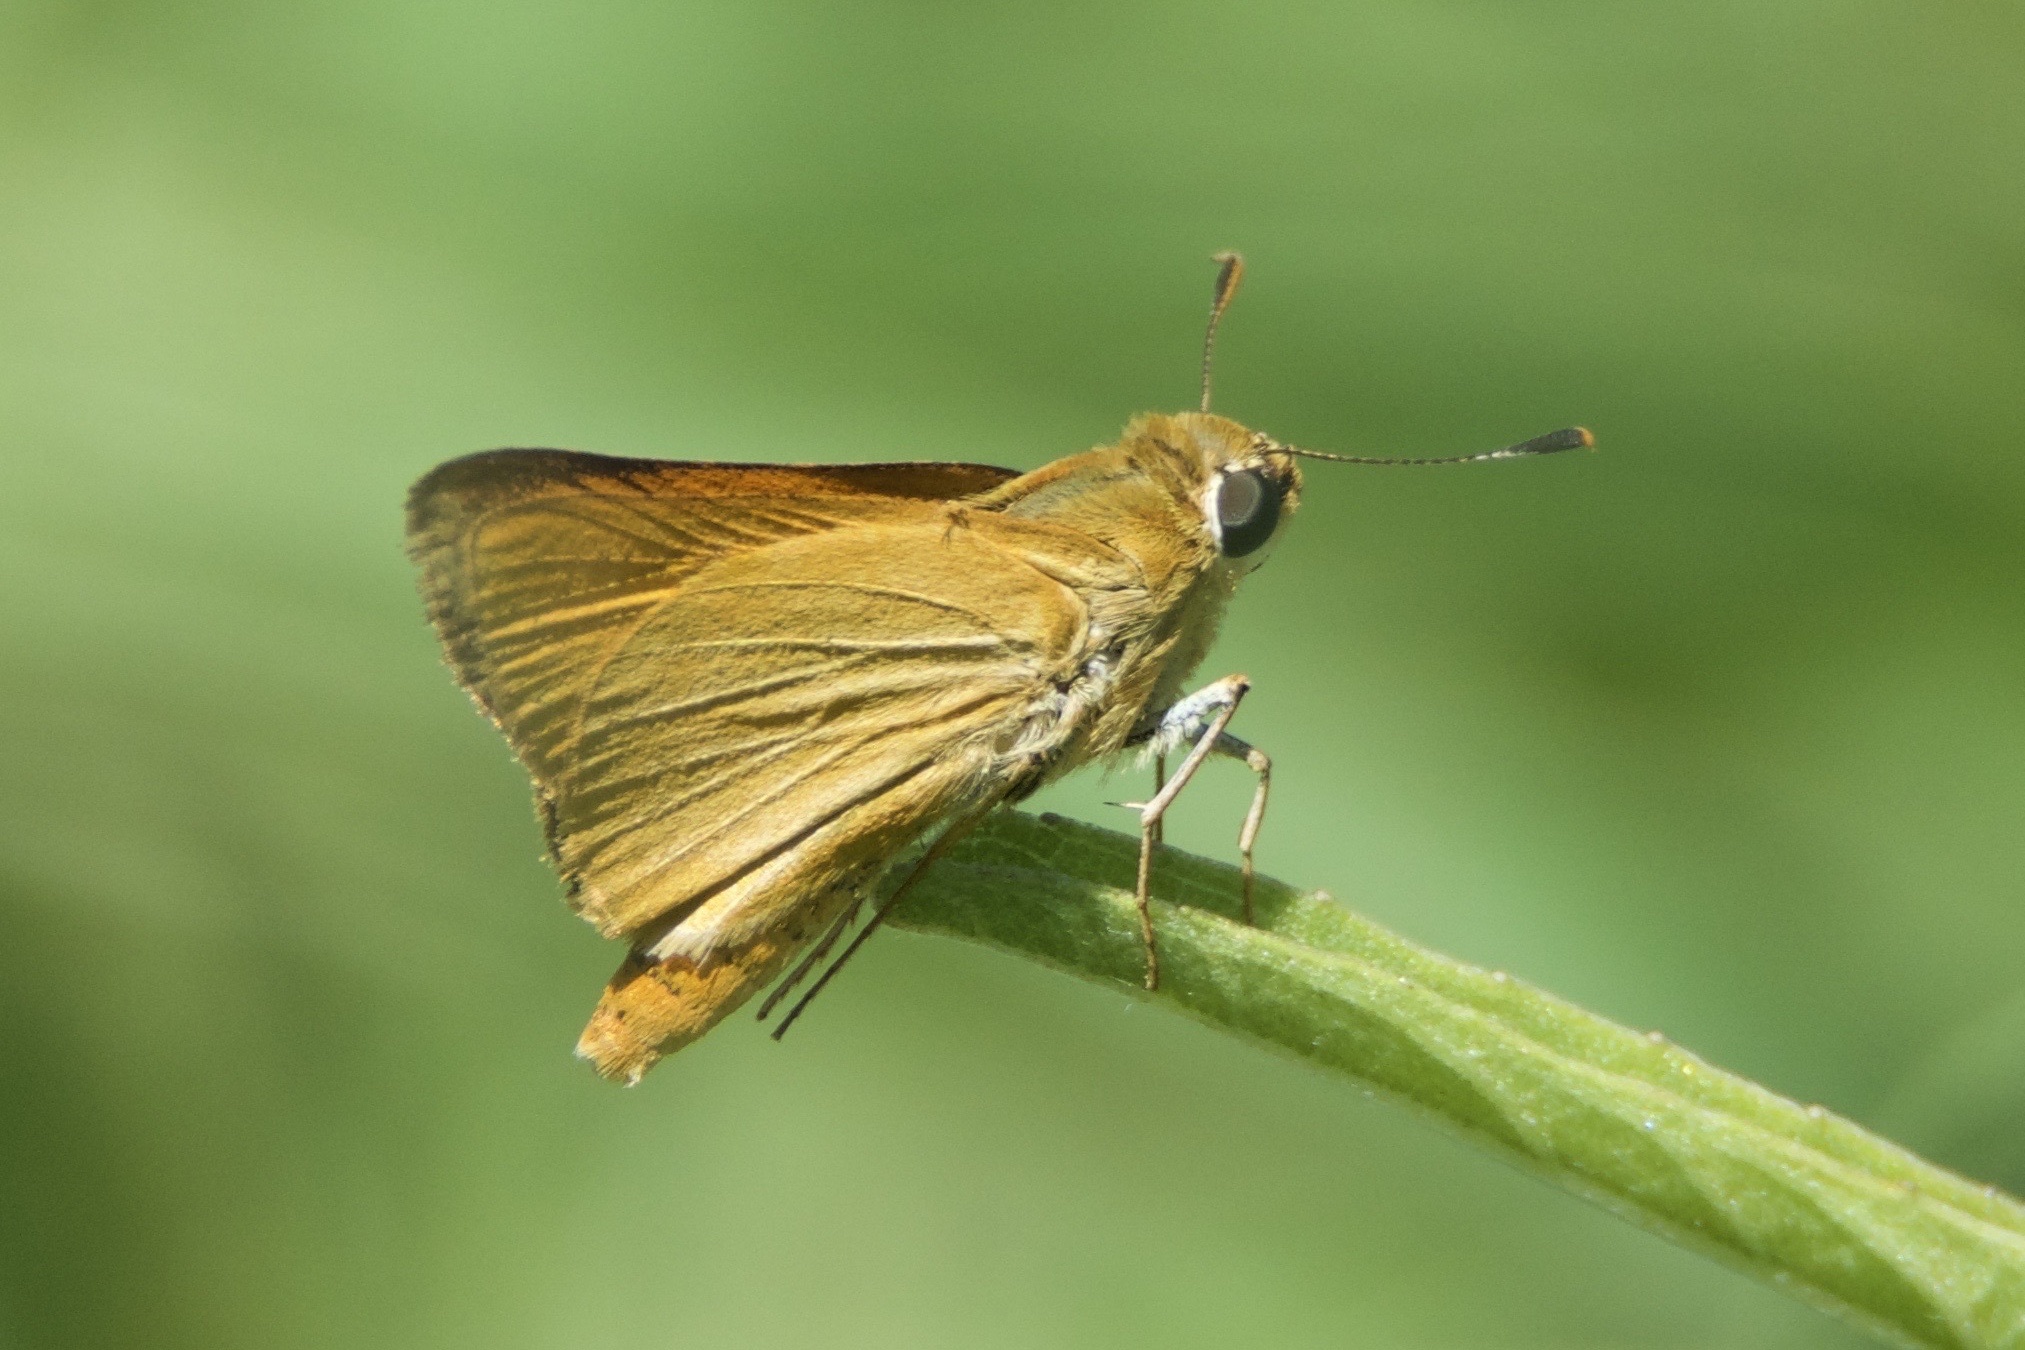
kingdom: Animalia
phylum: Arthropoda
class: Insecta
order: Lepidoptera
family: Hesperiidae
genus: Atrytone
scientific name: Atrytone delaware
